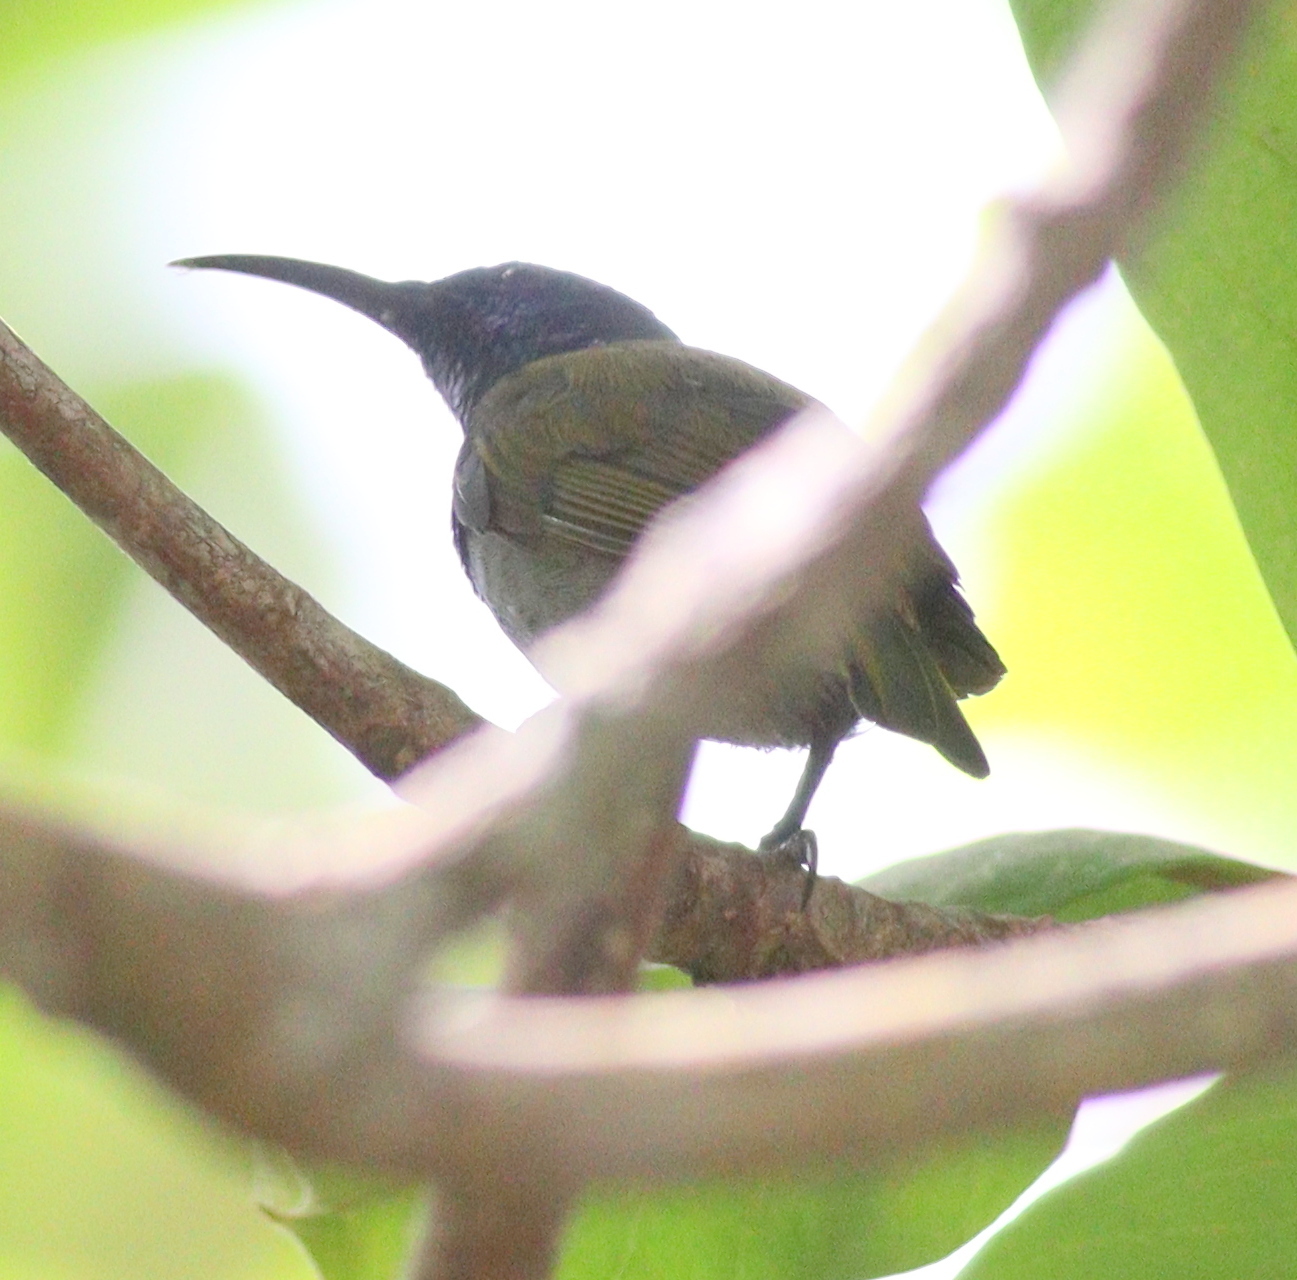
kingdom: Animalia
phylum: Chordata
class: Aves
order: Passeriformes
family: Nectariniidae
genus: Cyanomitra
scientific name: Cyanomitra verticalis
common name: Green-headed sunbird
